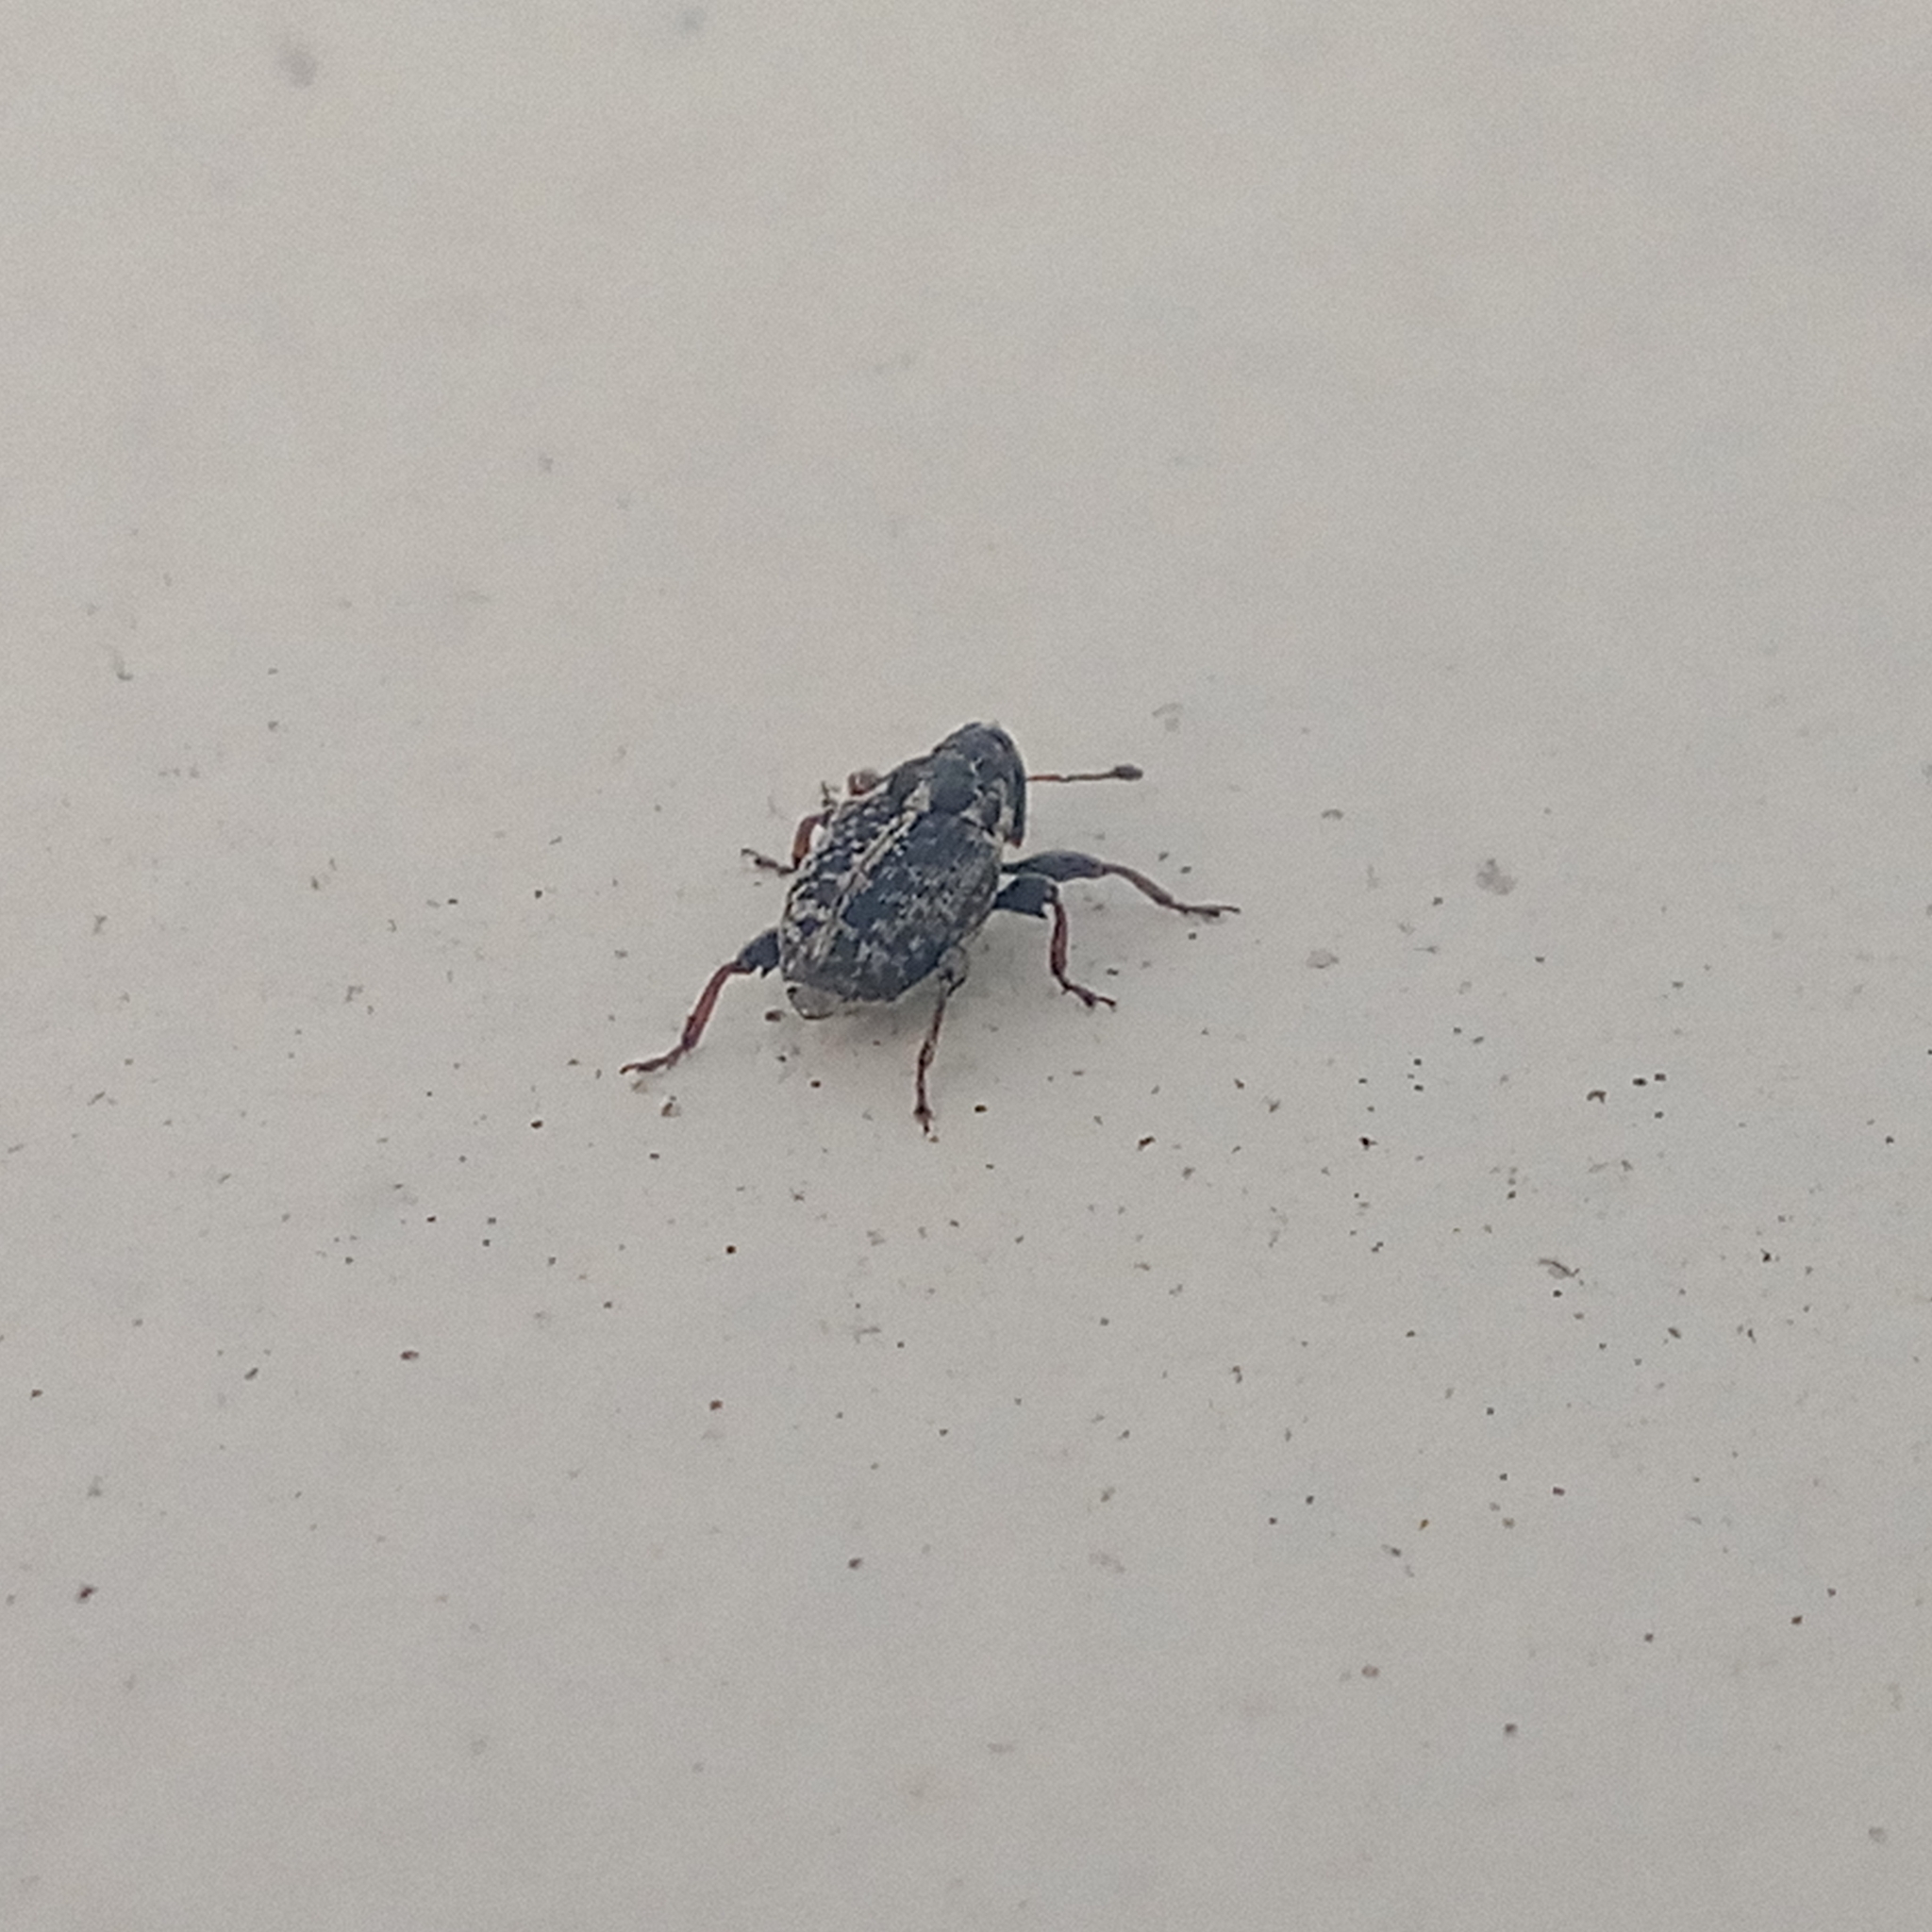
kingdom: Animalia
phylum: Arthropoda
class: Insecta
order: Coleoptera
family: Curculionidae
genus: Poecilma
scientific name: Poecilma
